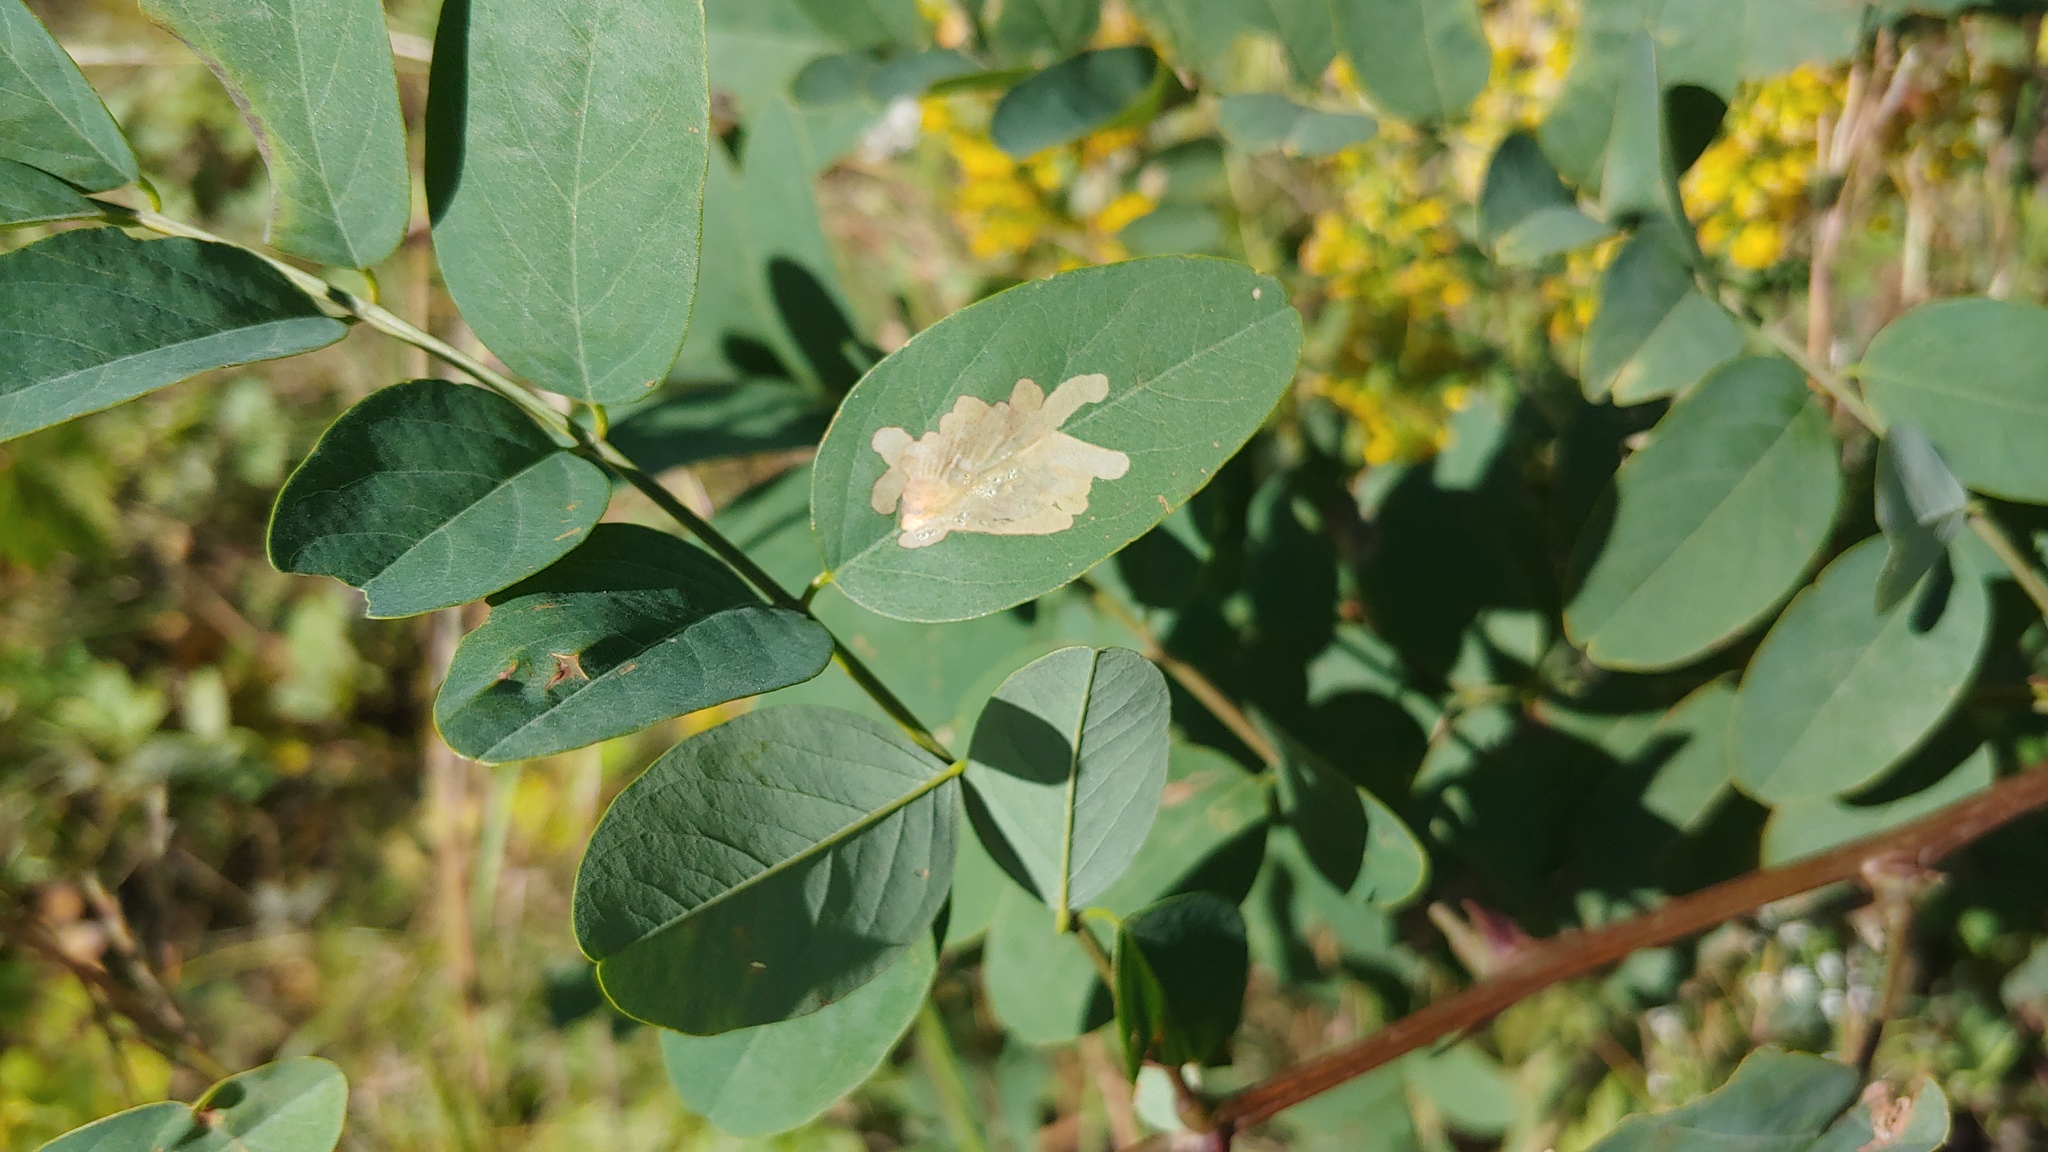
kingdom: Animalia
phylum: Arthropoda
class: Insecta
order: Lepidoptera
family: Gracillariidae
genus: Parectopa
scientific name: Parectopa robiniella
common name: Locust digitate leafminer
